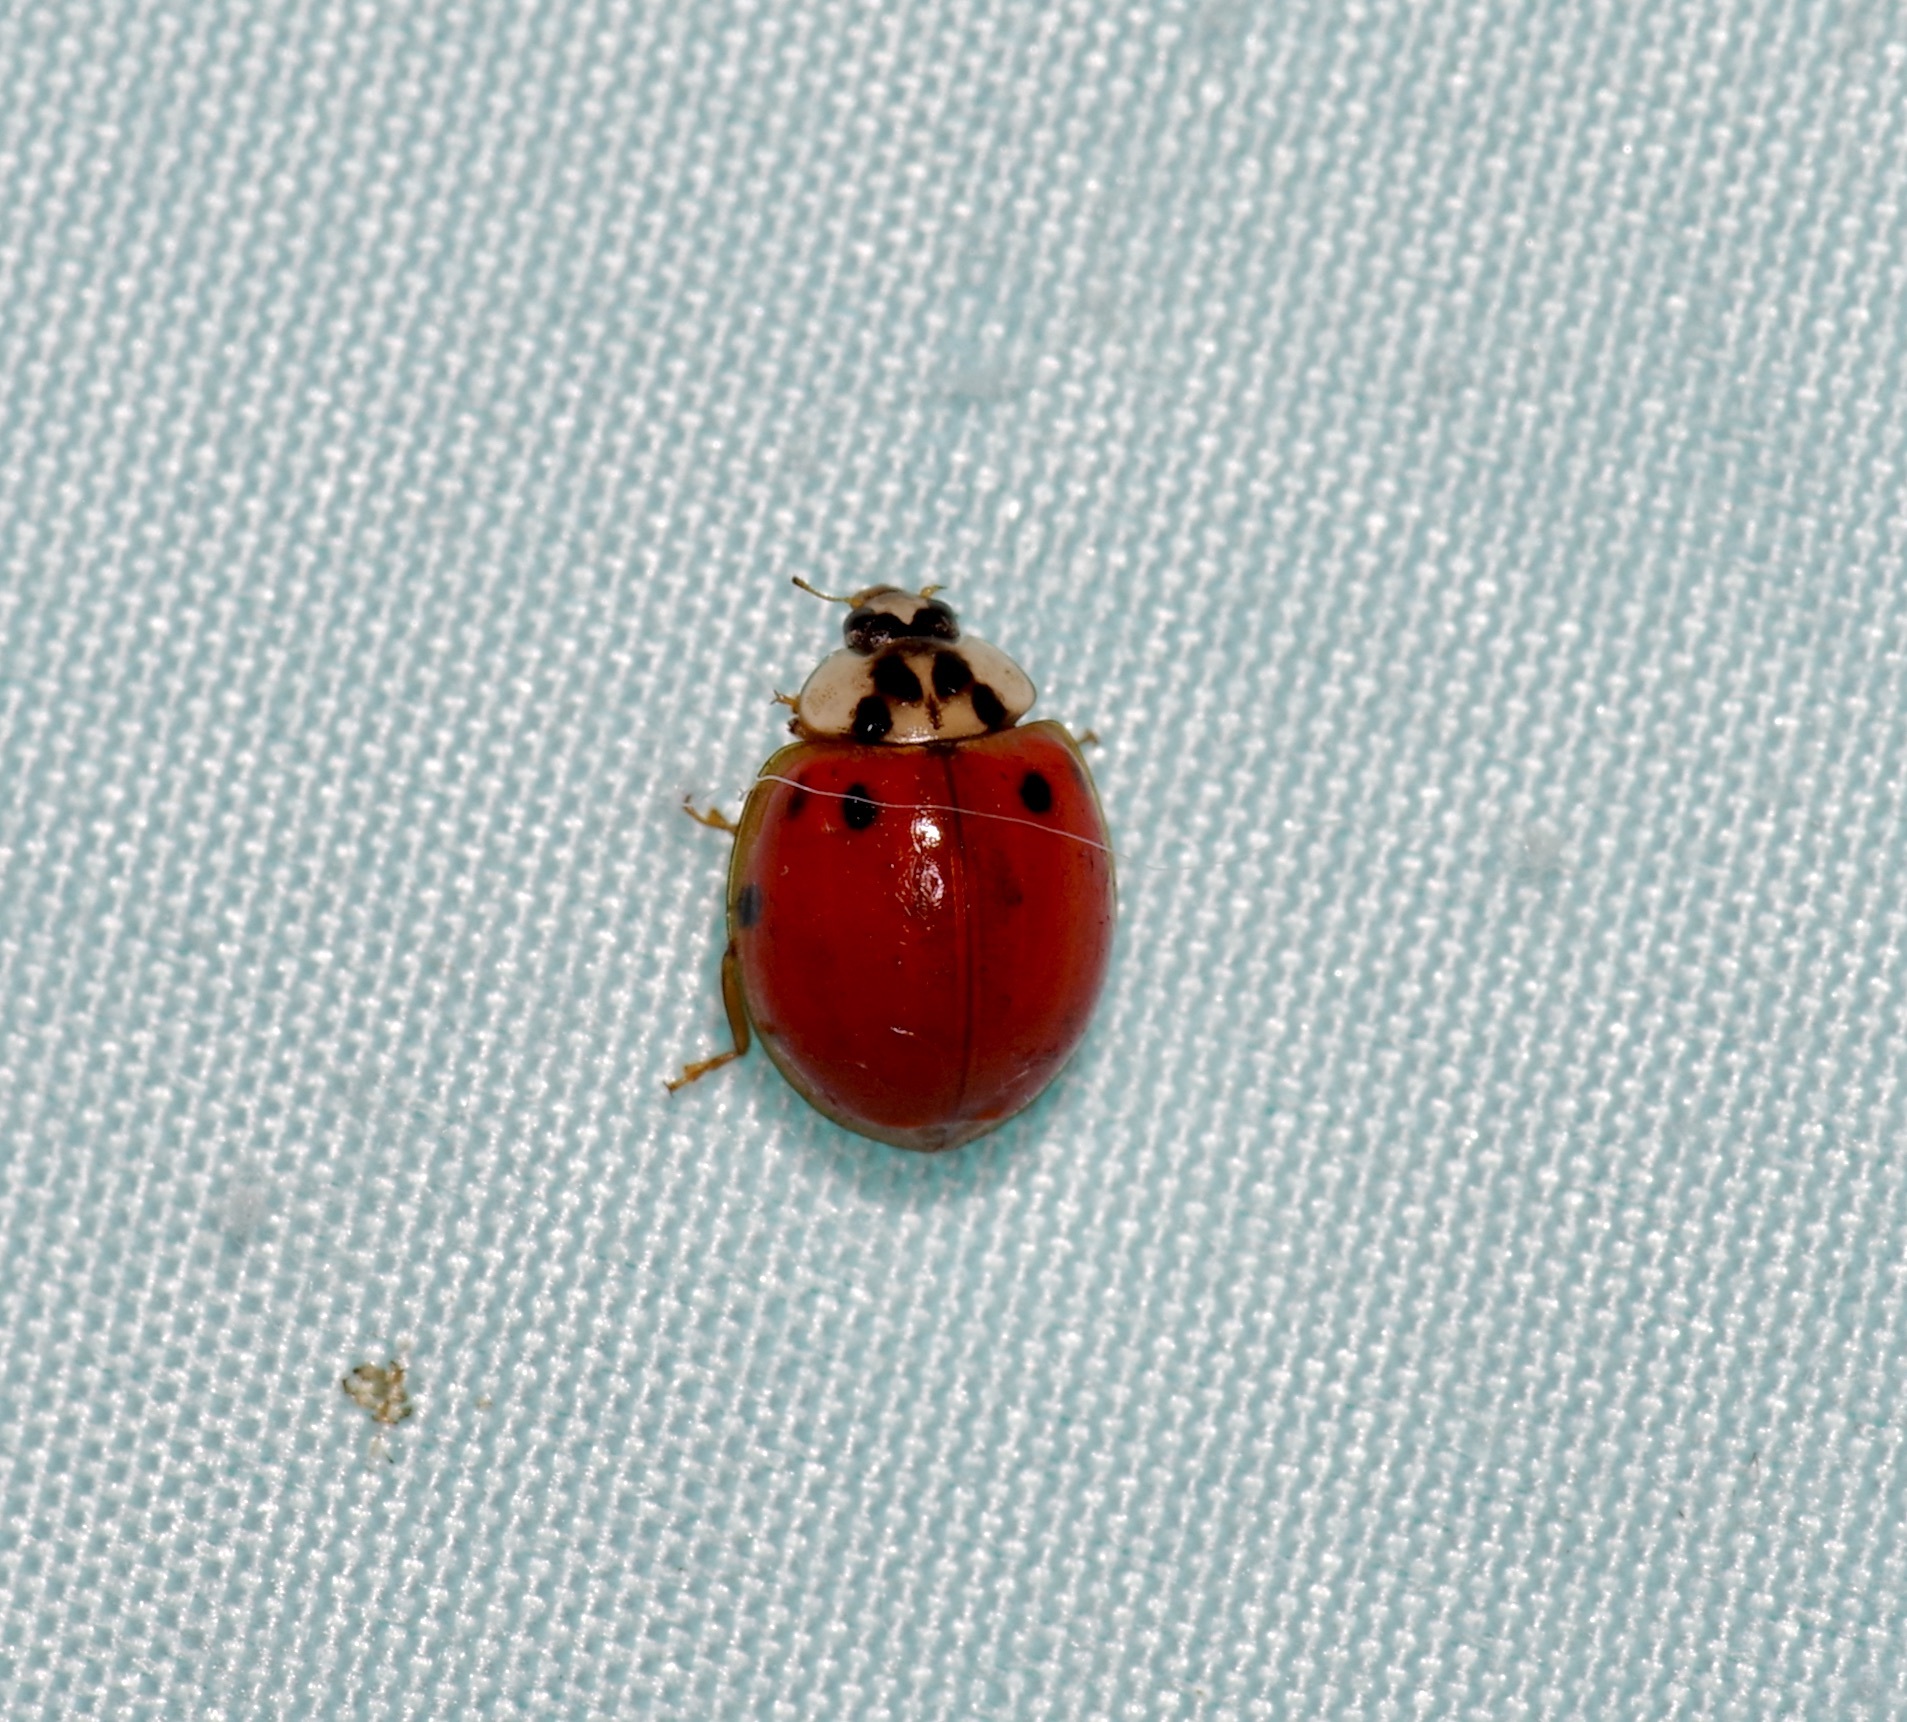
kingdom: Animalia
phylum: Arthropoda
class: Insecta
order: Coleoptera
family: Coccinellidae
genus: Harmonia
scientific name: Harmonia axyridis
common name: Harlequin ladybird
